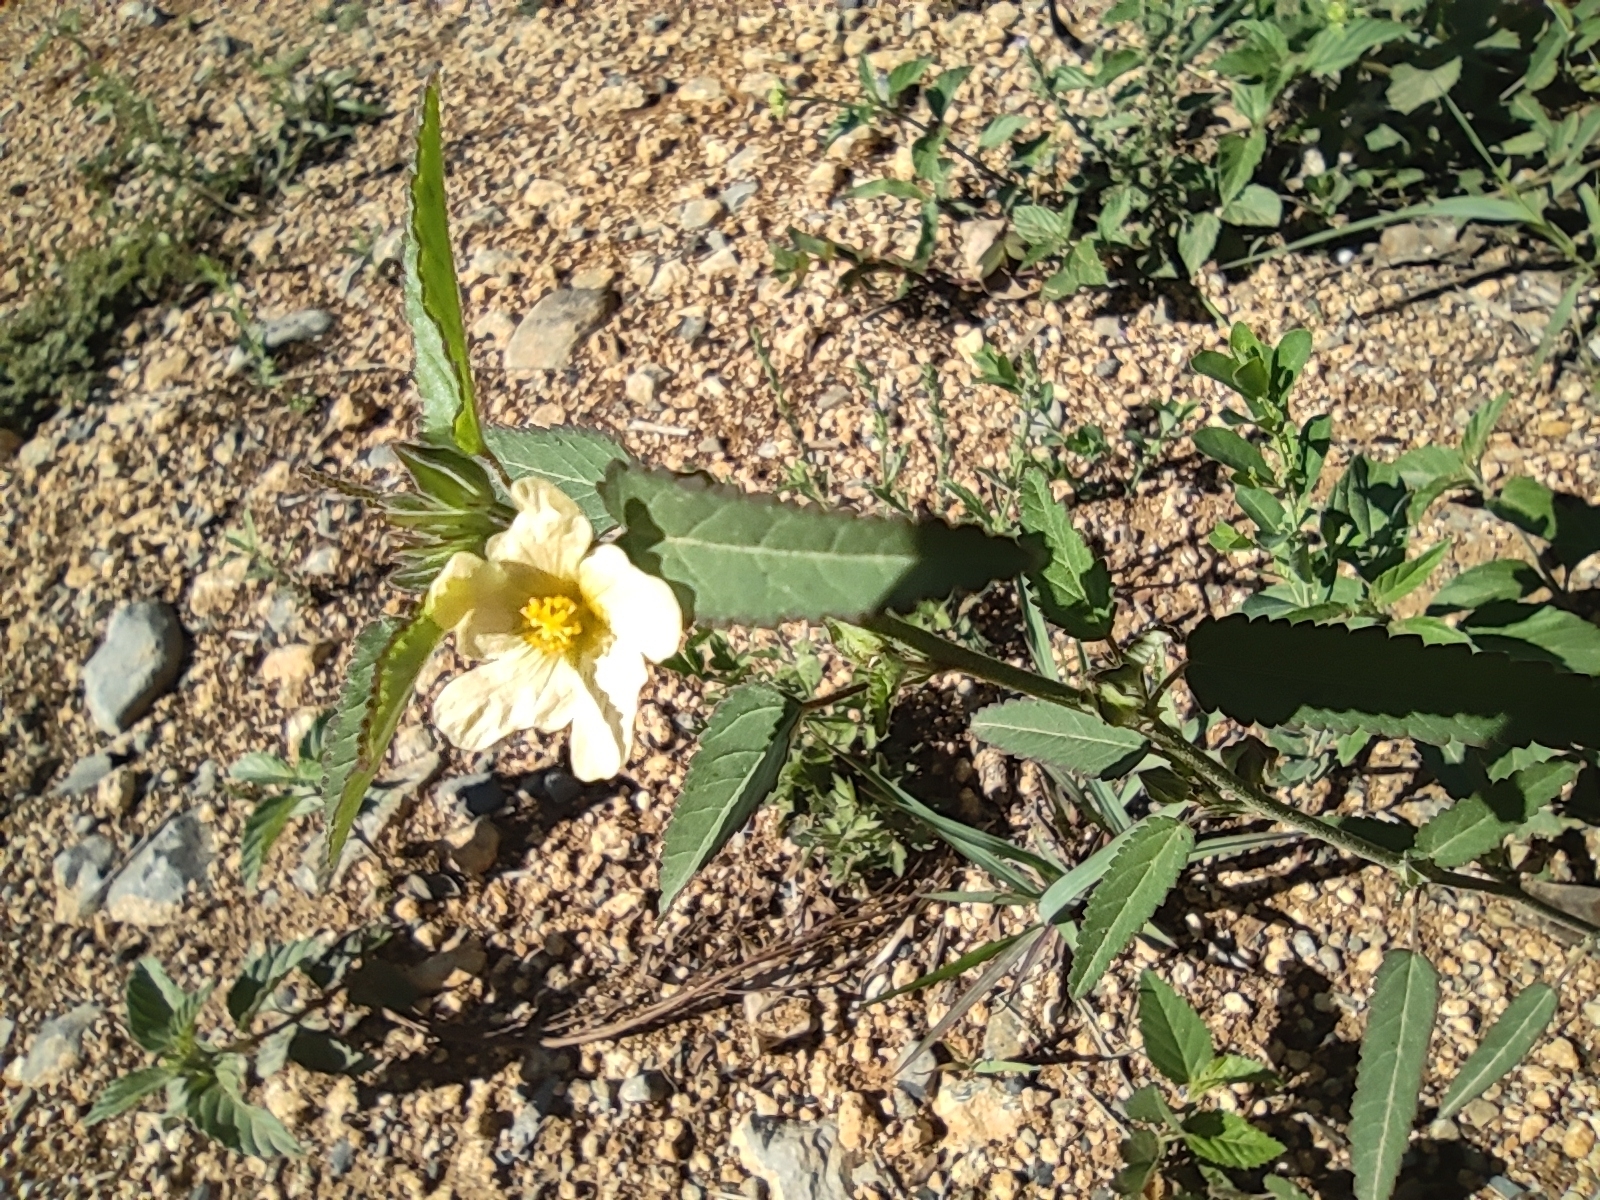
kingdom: Plantae
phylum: Tracheophyta
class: Magnoliopsida
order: Malvales
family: Malvaceae
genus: Sida
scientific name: Sida abutilifolia
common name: Spreading fanpetals
